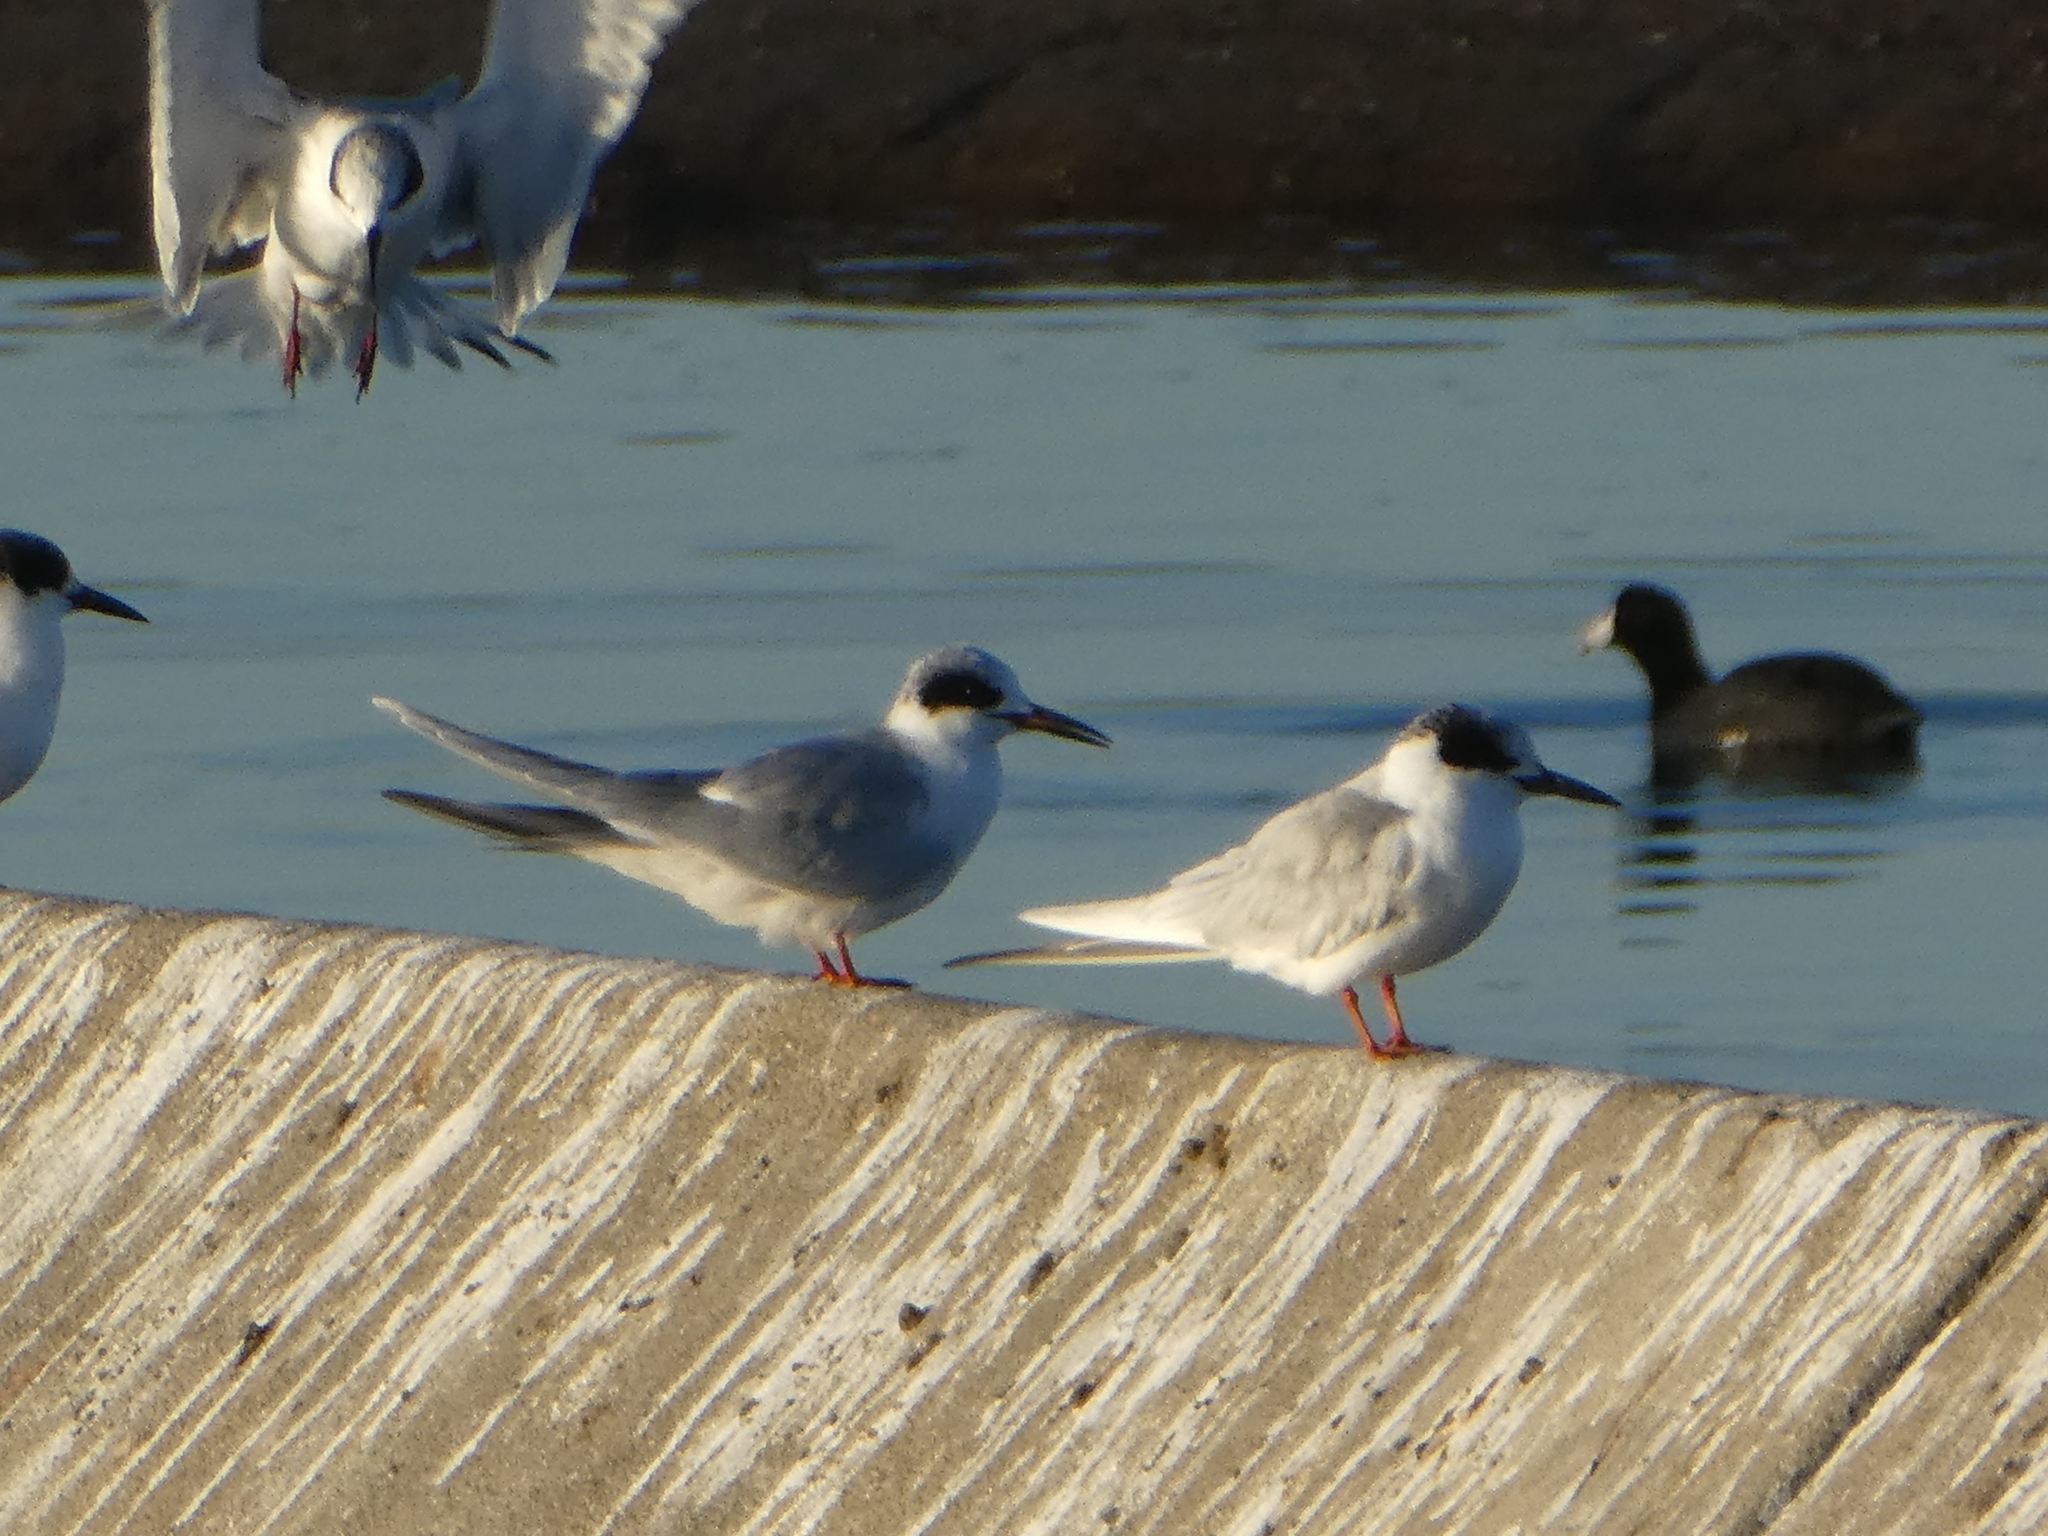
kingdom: Animalia
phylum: Chordata
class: Aves
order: Charadriiformes
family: Laridae
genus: Sterna
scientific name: Sterna forsteri
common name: Forster's tern
